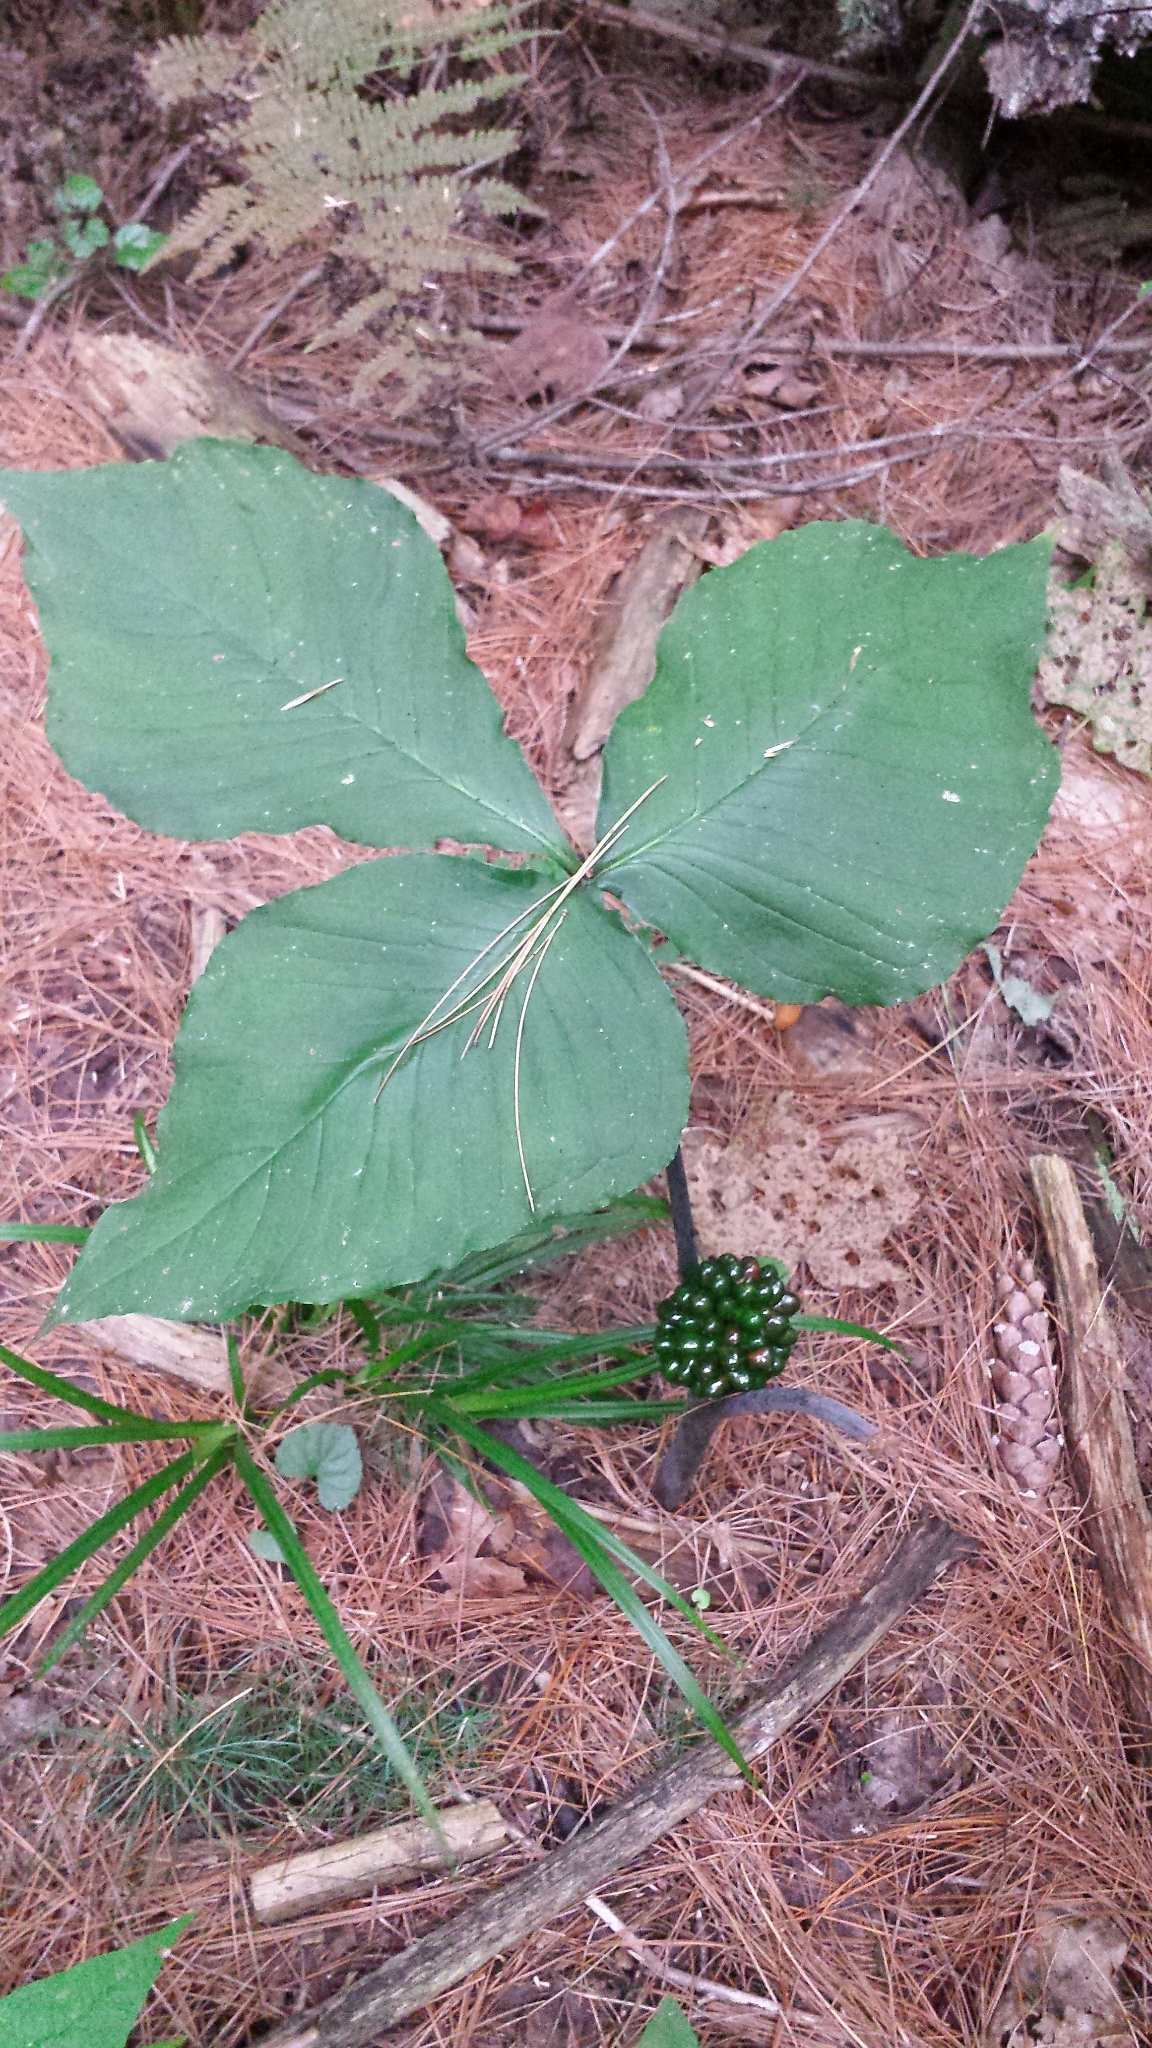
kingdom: Plantae
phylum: Tracheophyta
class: Liliopsida
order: Alismatales
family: Araceae
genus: Arisaema
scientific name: Arisaema
